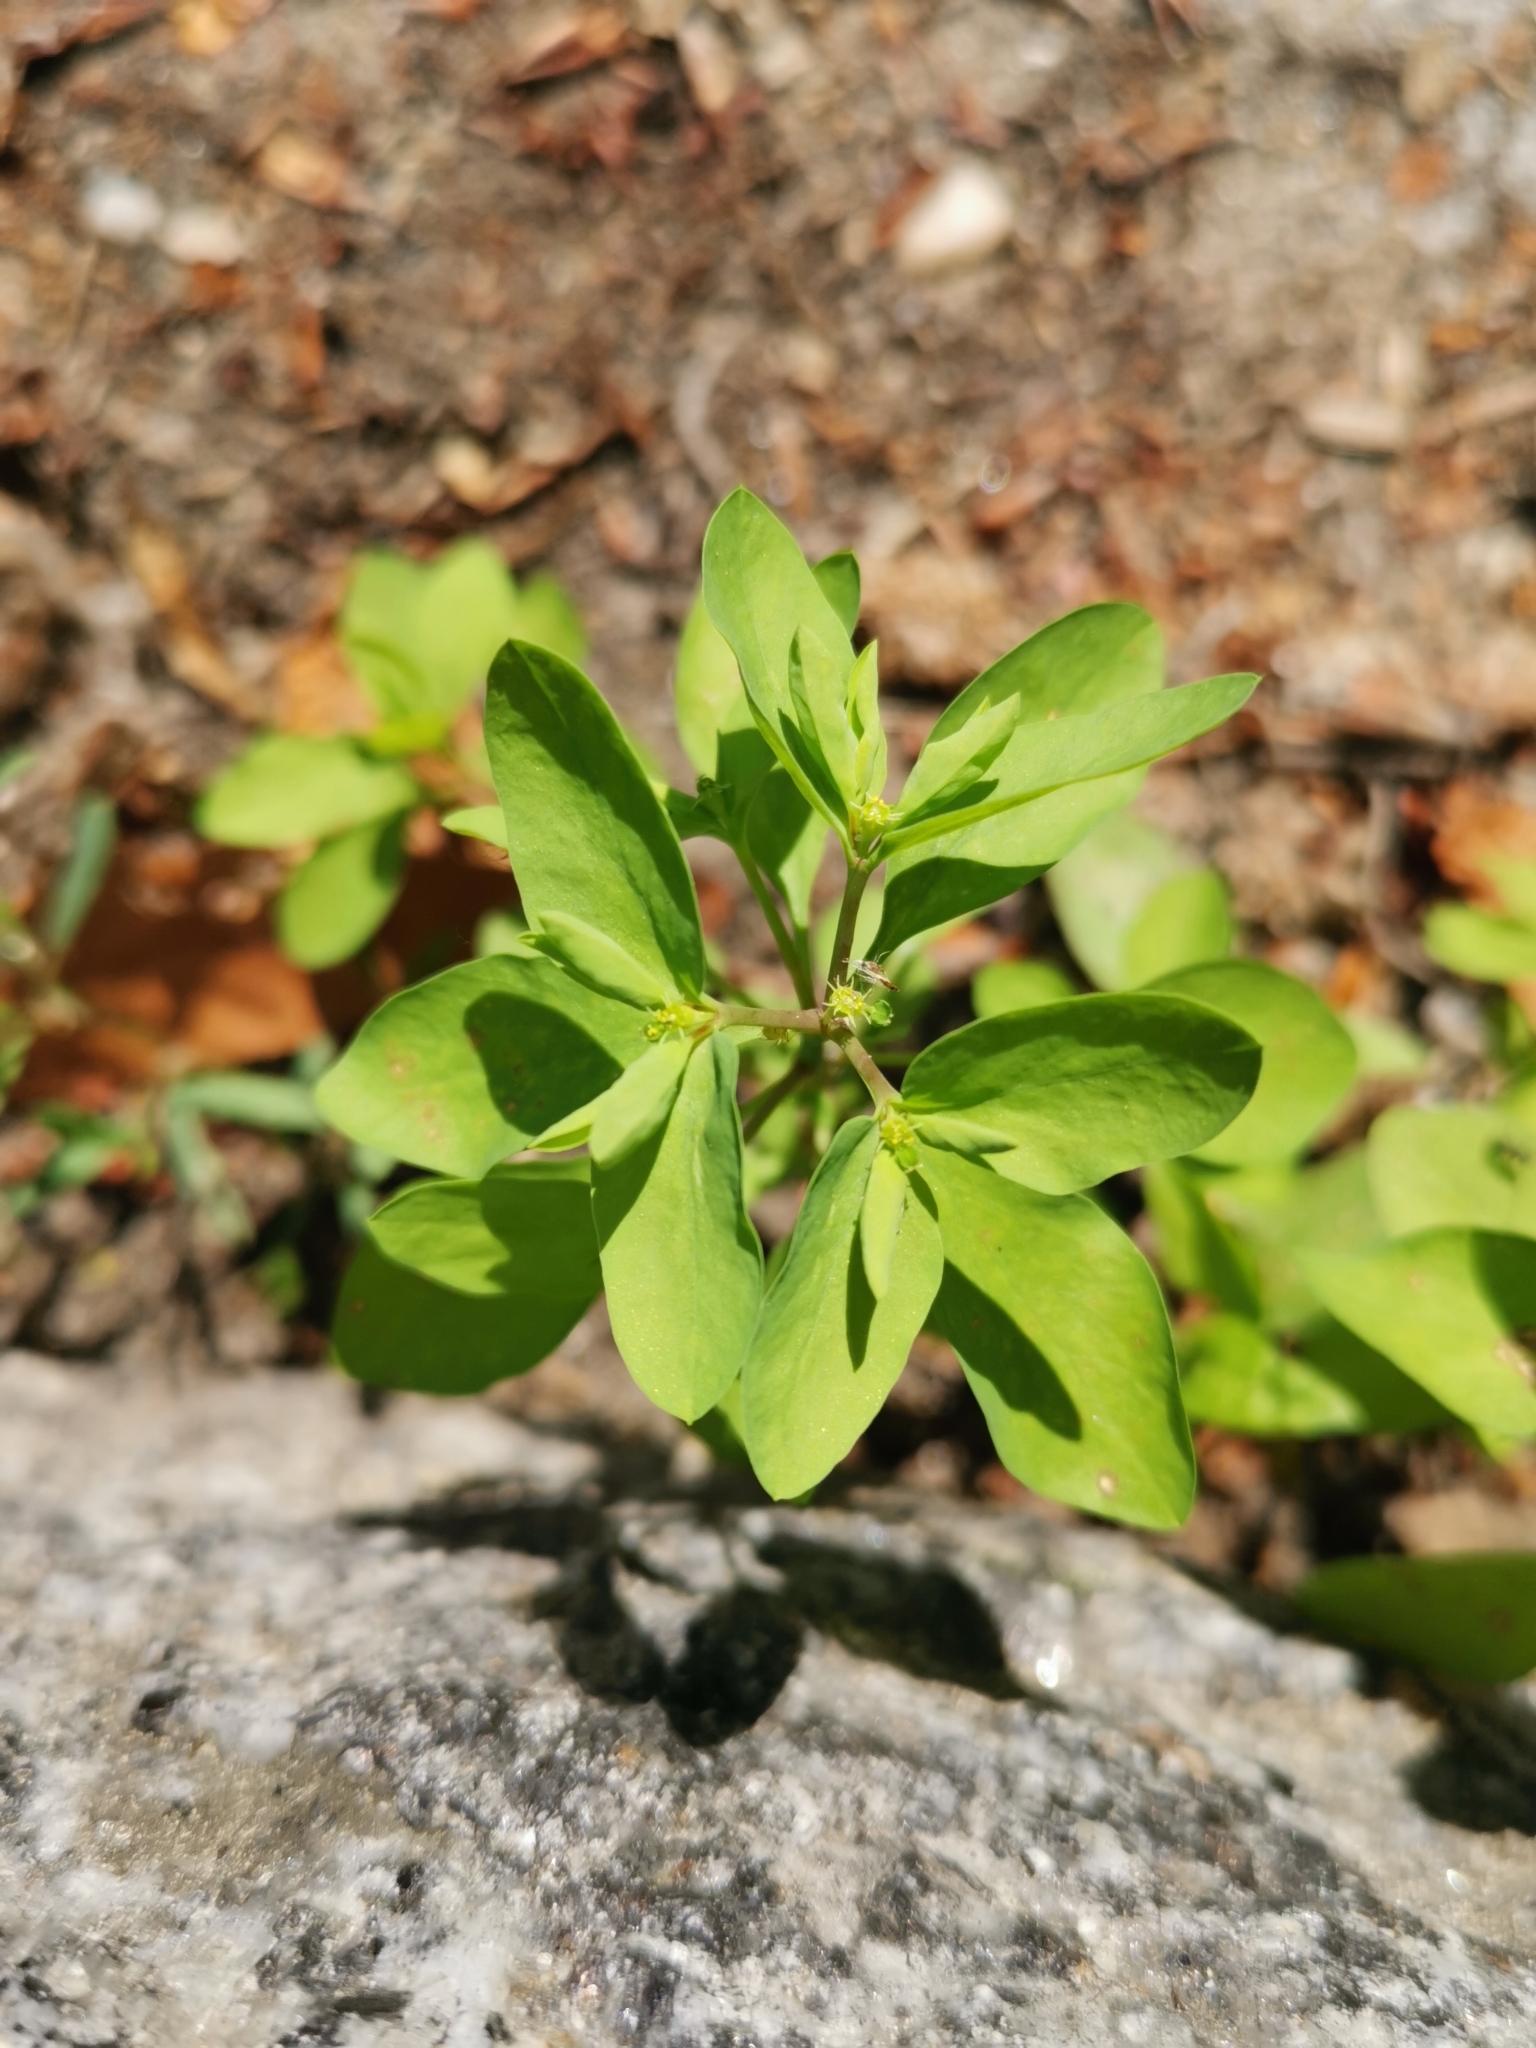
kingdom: Plantae
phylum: Tracheophyta
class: Magnoliopsida
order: Malpighiales
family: Euphorbiaceae
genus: Euphorbia
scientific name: Euphorbia peplus
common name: Petty spurge
